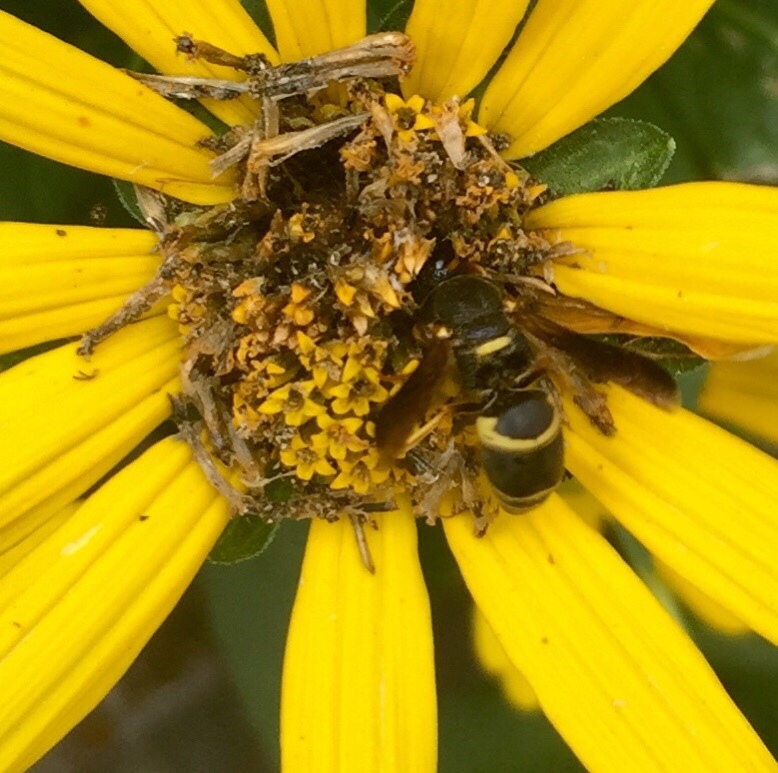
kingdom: Animalia
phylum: Arthropoda
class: Insecta
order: Hymenoptera
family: Eumenidae
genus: Euodynerus
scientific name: Euodynerus hidalgo
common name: Wasp
